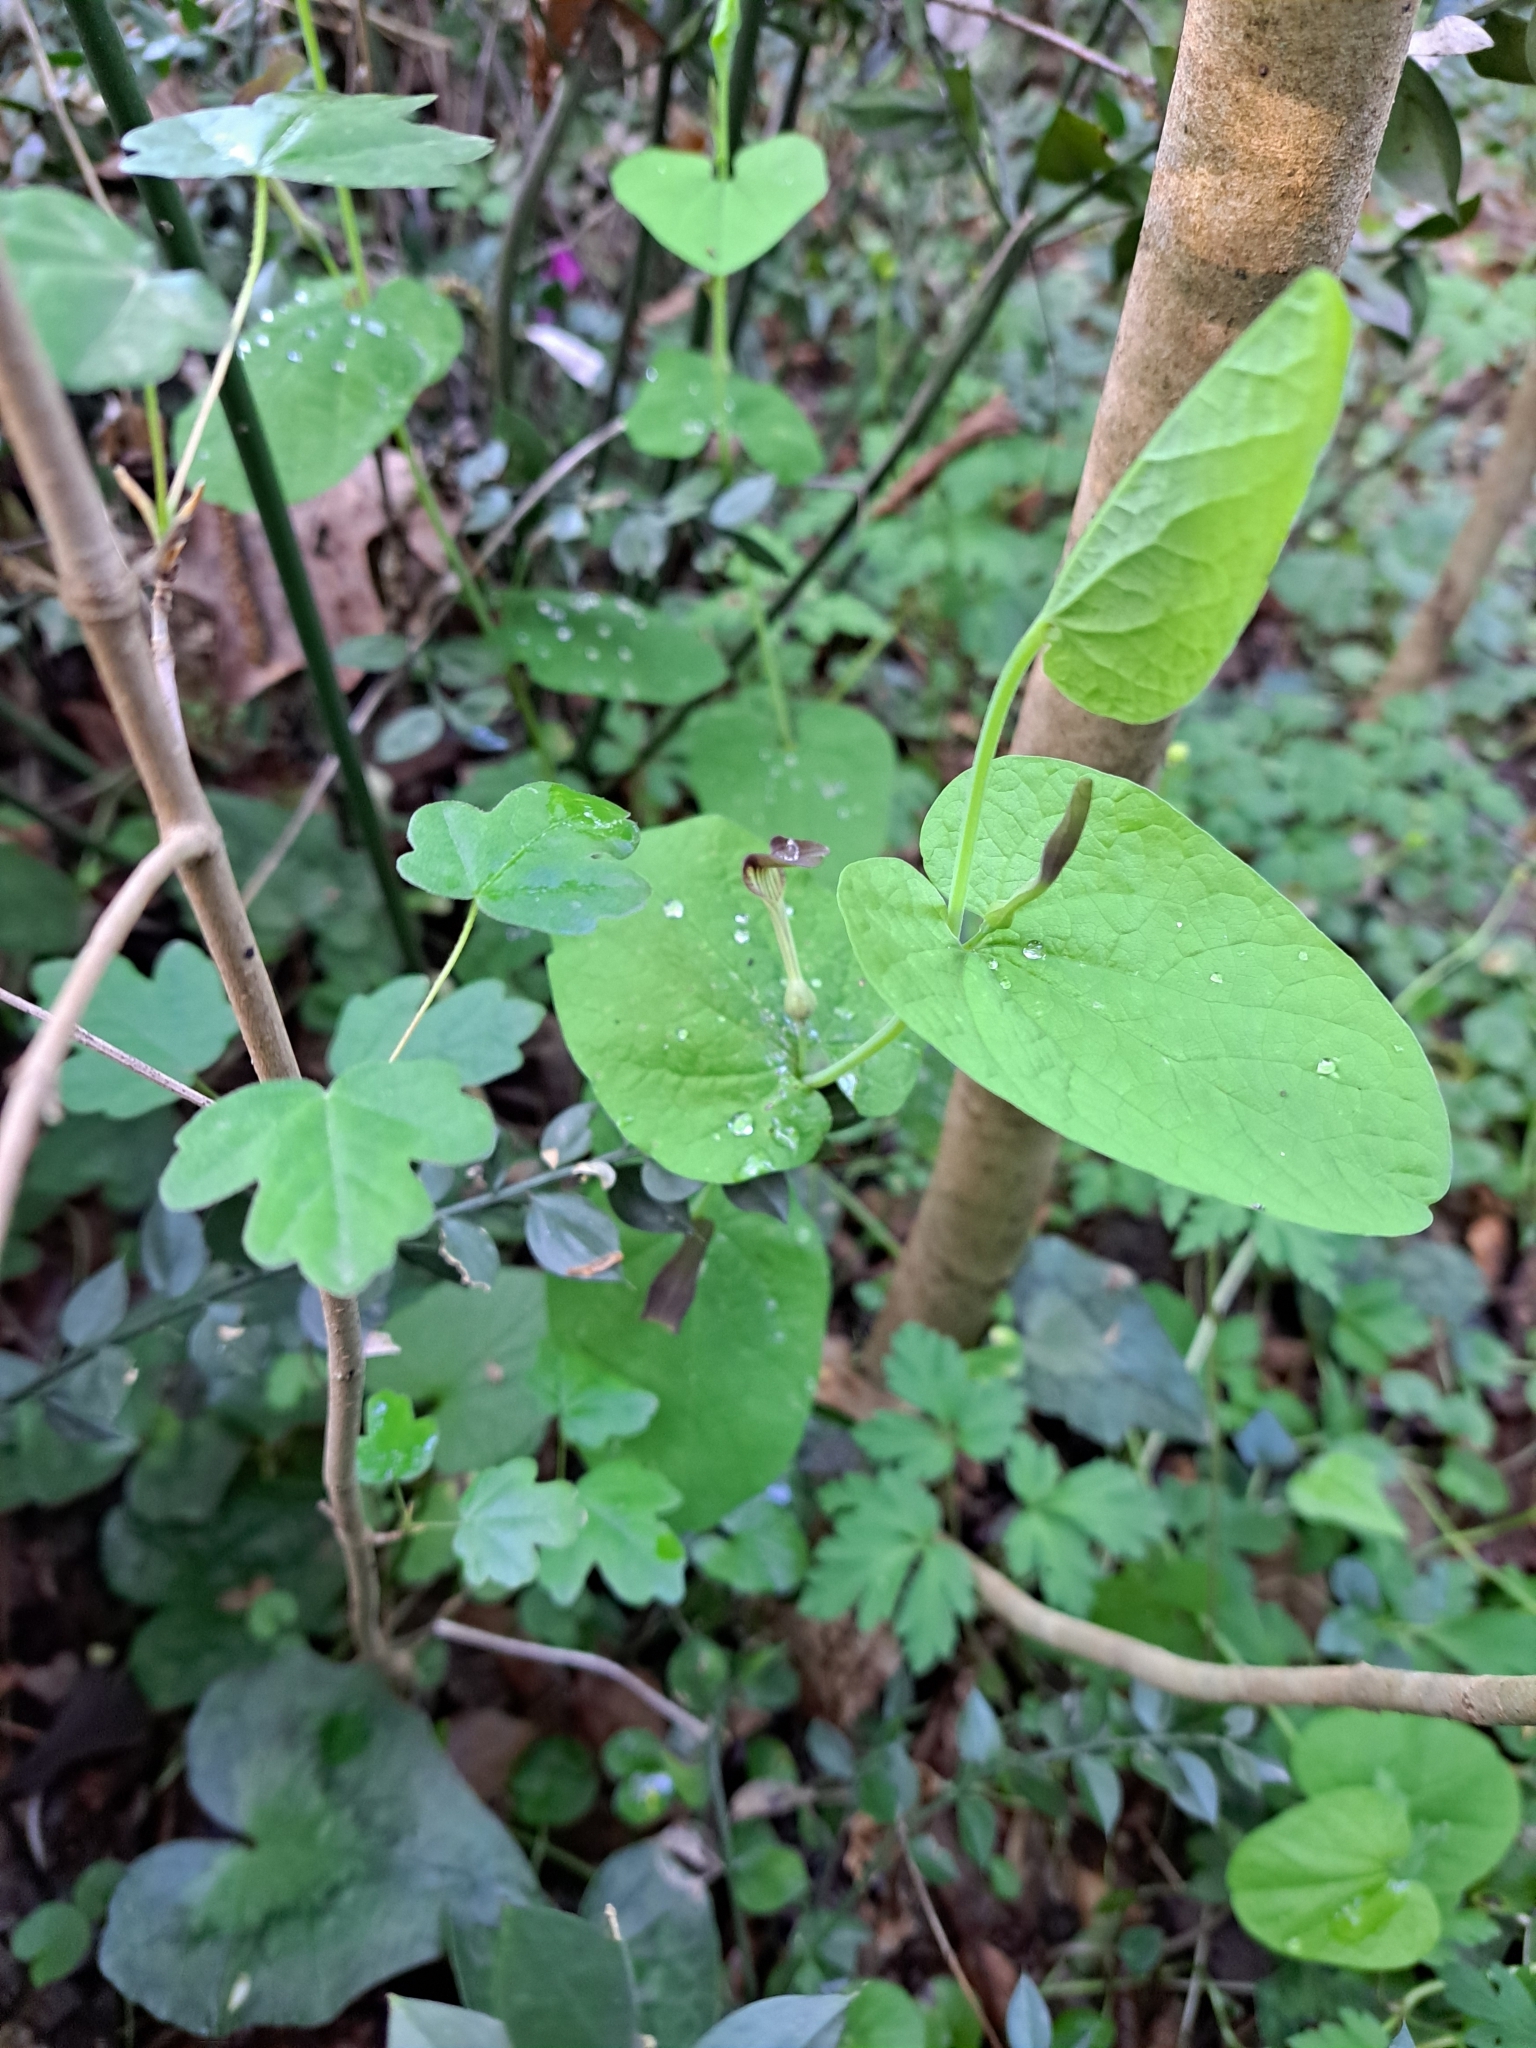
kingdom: Plantae
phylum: Tracheophyta
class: Magnoliopsida
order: Piperales
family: Aristolochiaceae
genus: Aristolochia
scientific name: Aristolochia rotunda
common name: Smearwort
